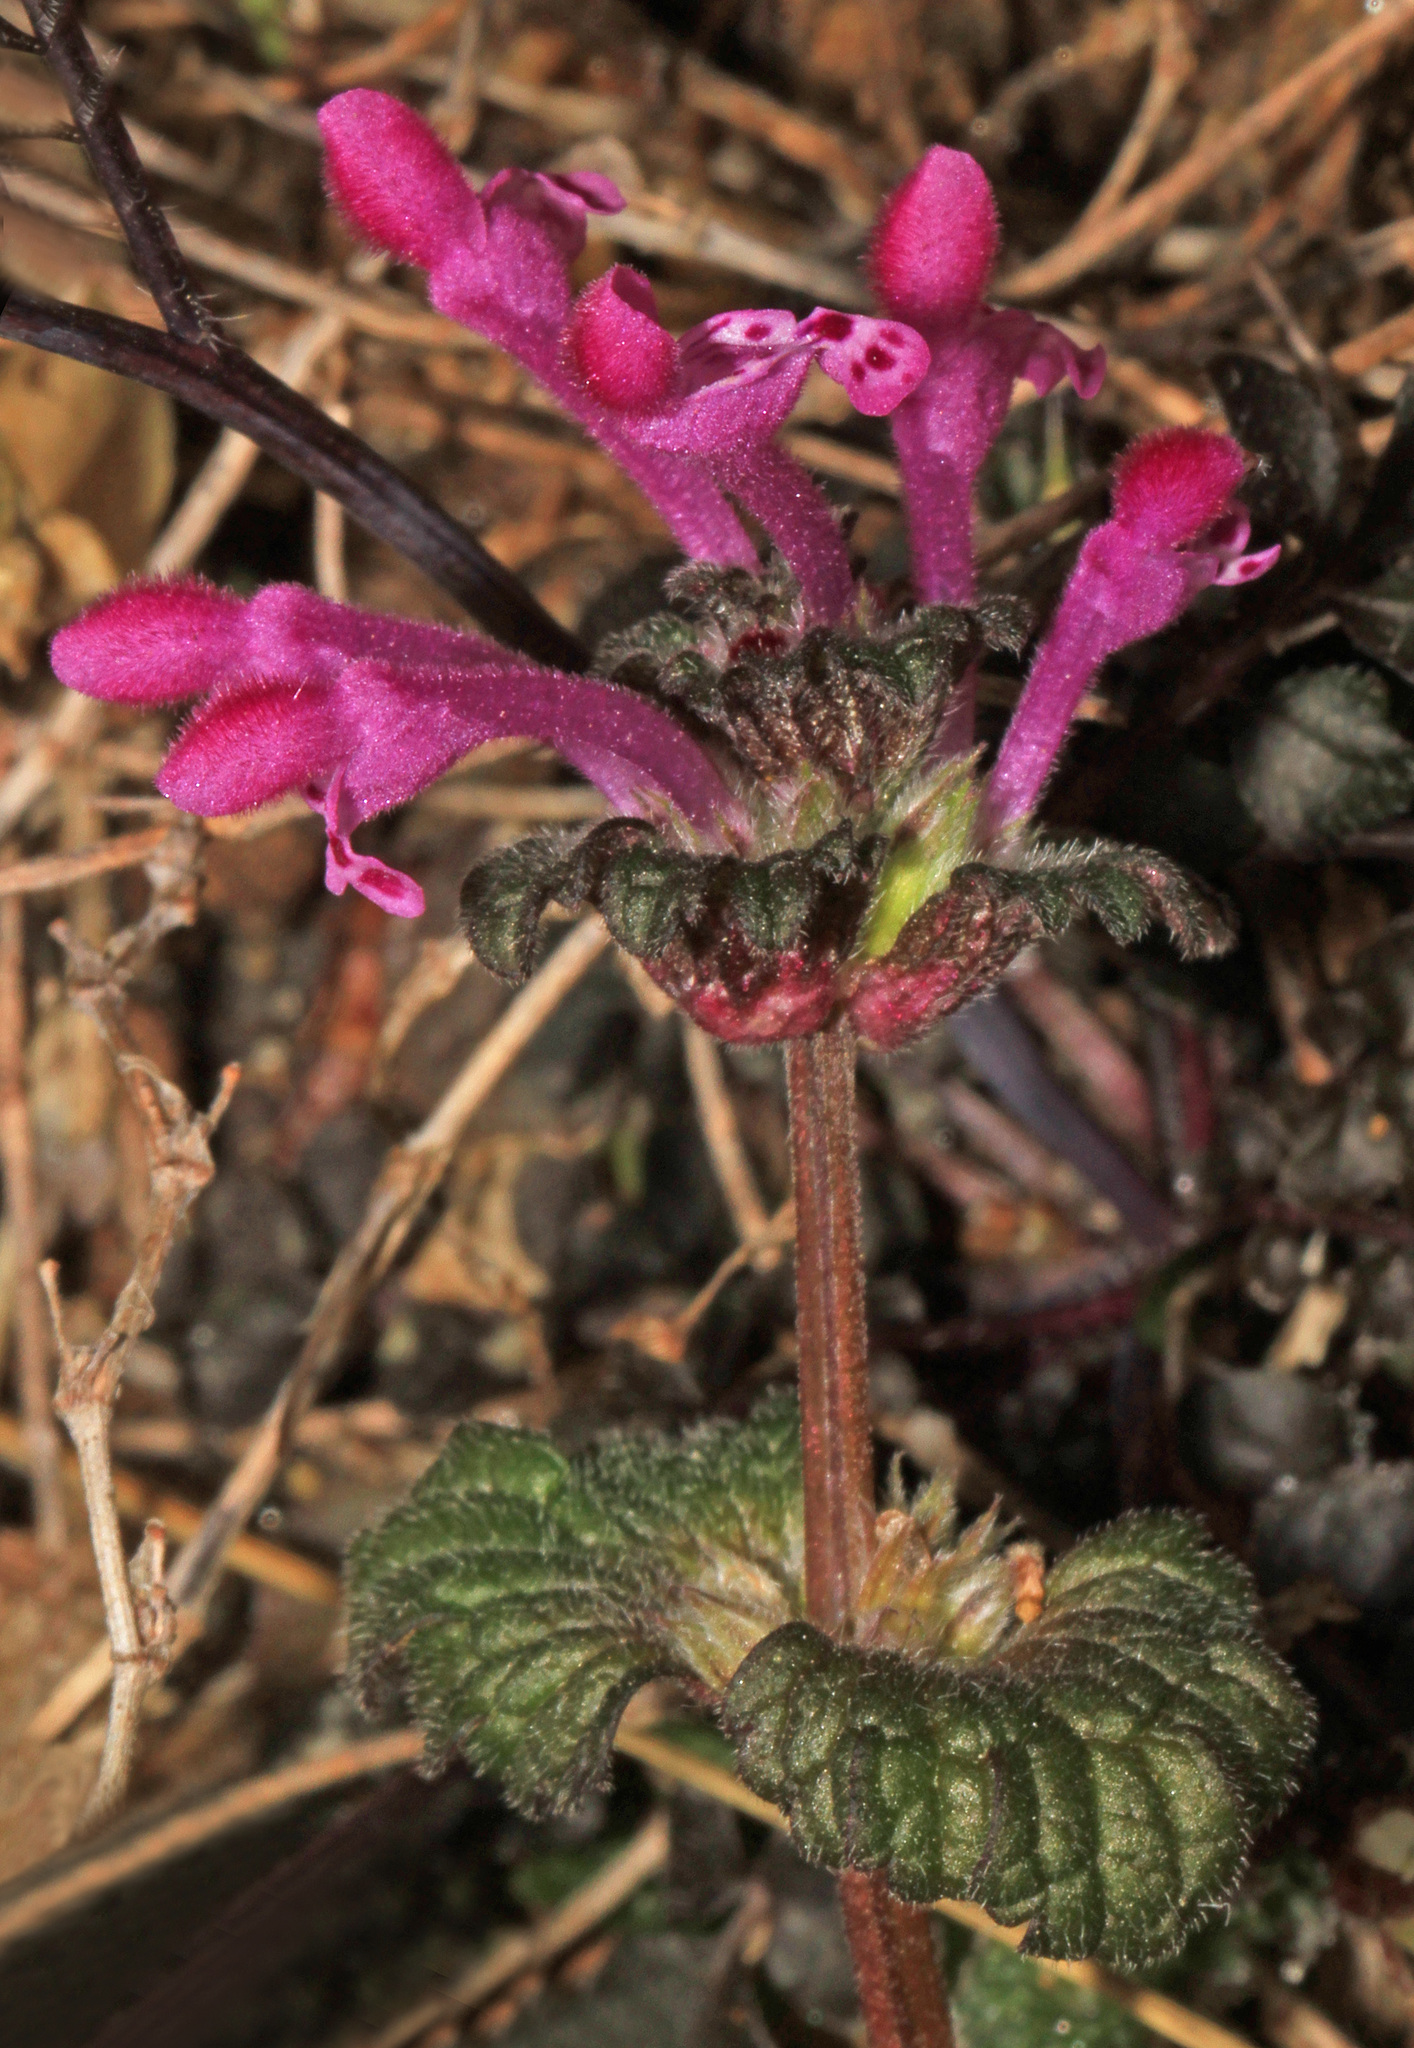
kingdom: Plantae
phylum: Tracheophyta
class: Magnoliopsida
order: Lamiales
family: Lamiaceae
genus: Lamium
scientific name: Lamium amplexicaule
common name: Henbit dead-nettle
